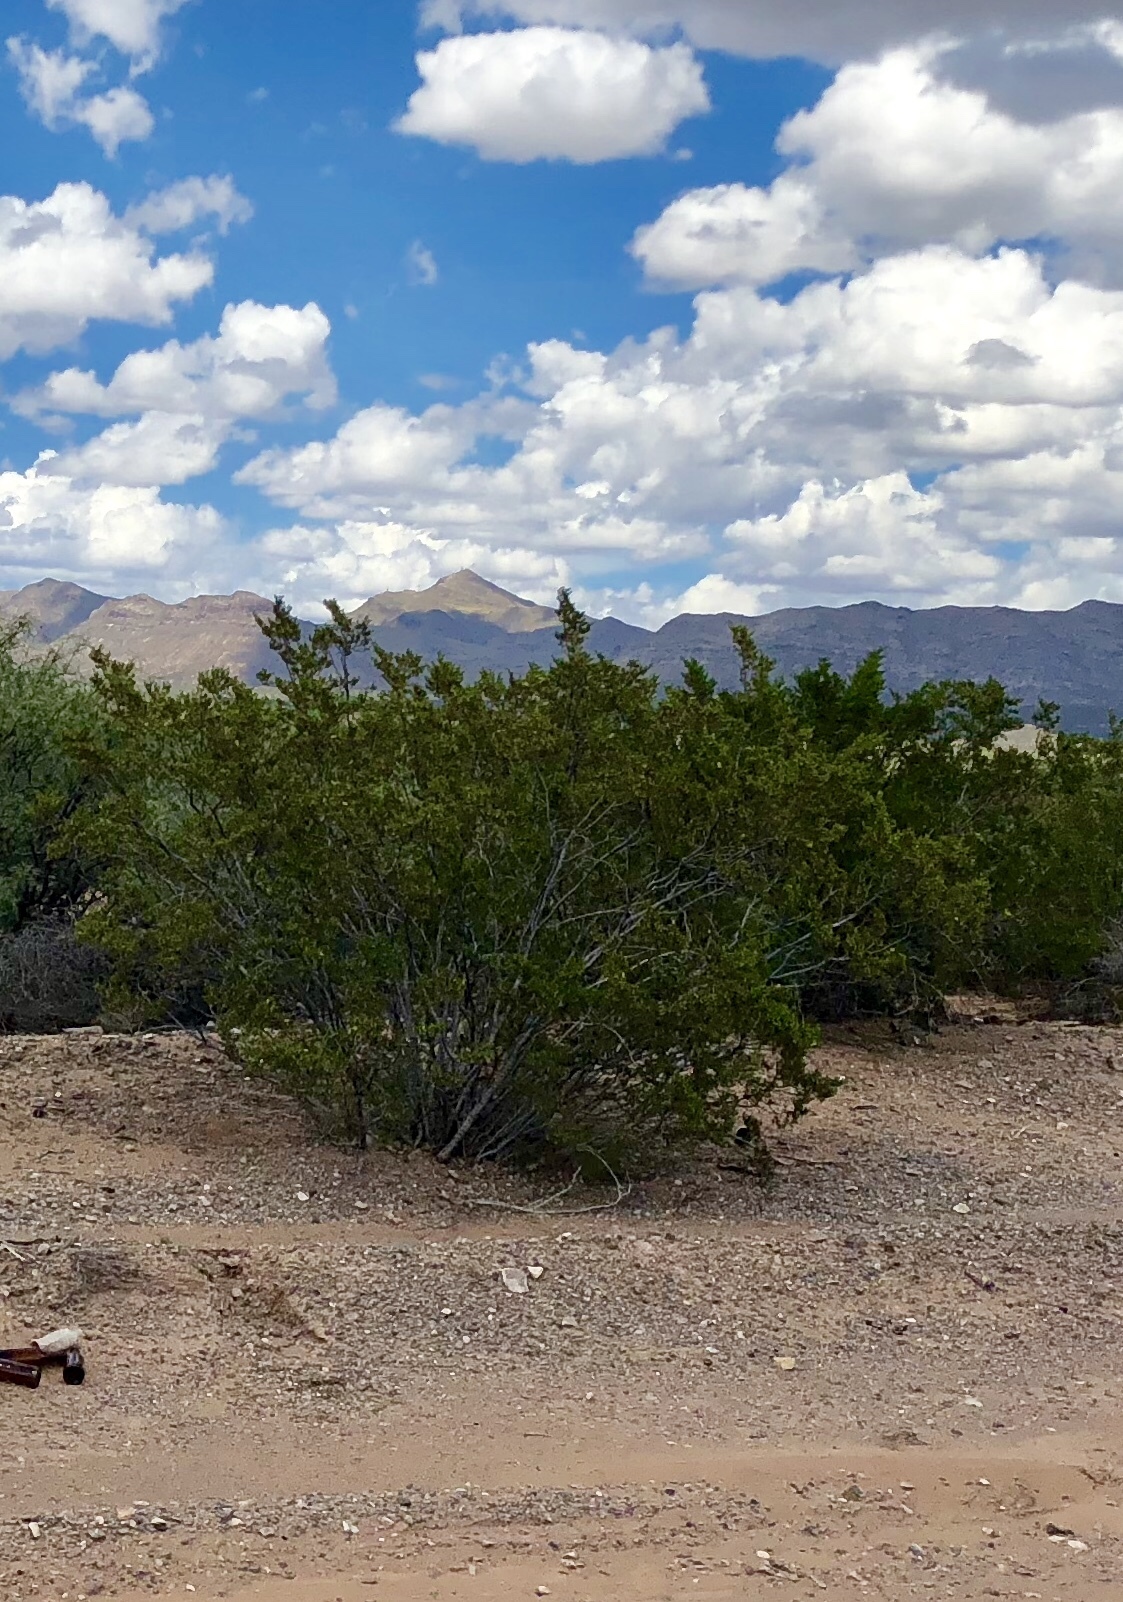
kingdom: Plantae
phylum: Tracheophyta
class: Magnoliopsida
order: Zygophyllales
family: Zygophyllaceae
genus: Larrea
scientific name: Larrea tridentata
